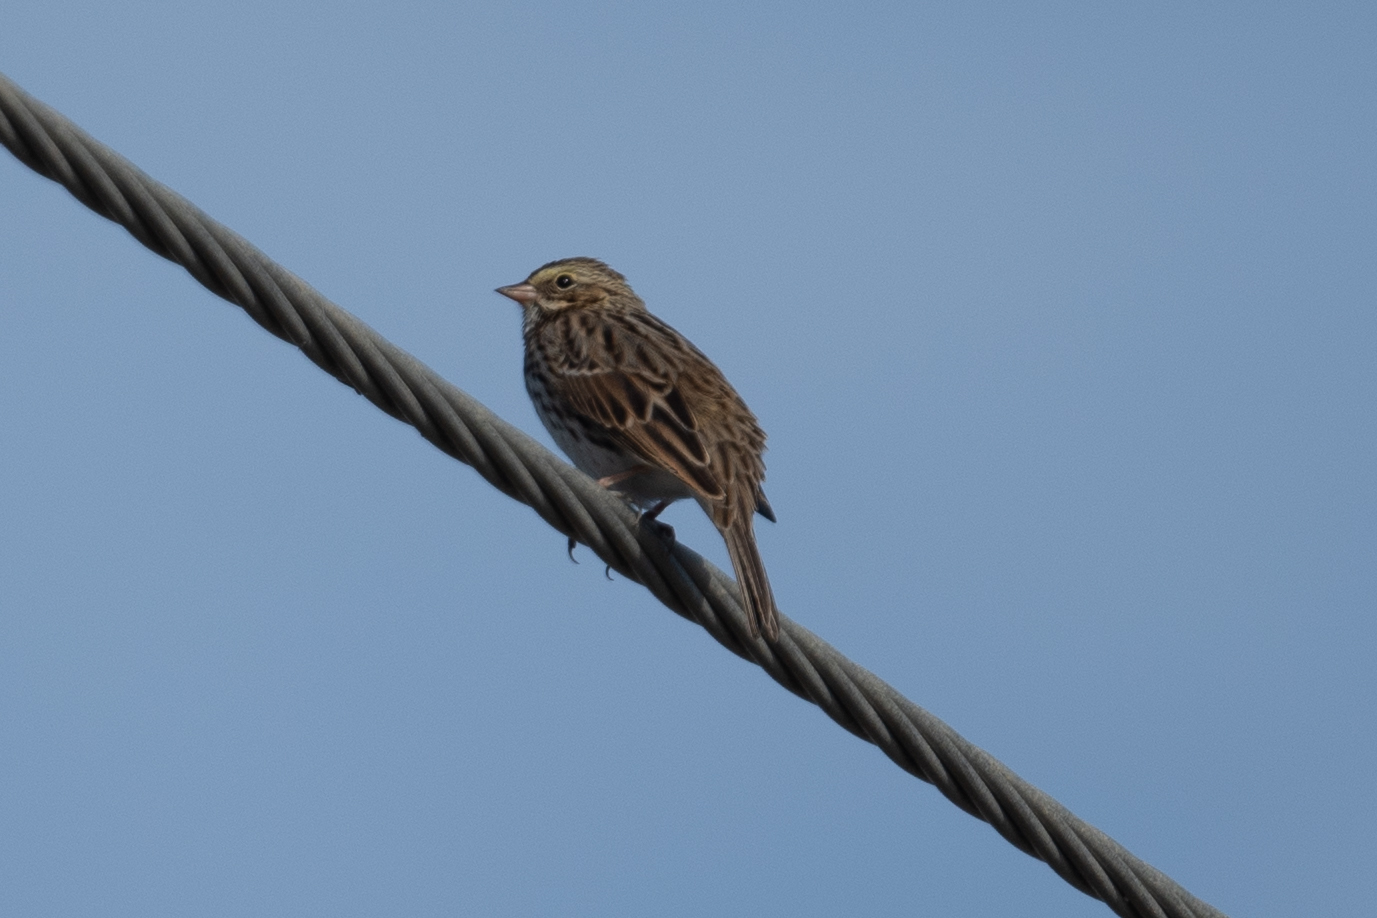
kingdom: Animalia
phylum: Chordata
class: Aves
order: Passeriformes
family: Passerellidae
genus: Passerculus
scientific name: Passerculus sandwichensis
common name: Savannah sparrow
